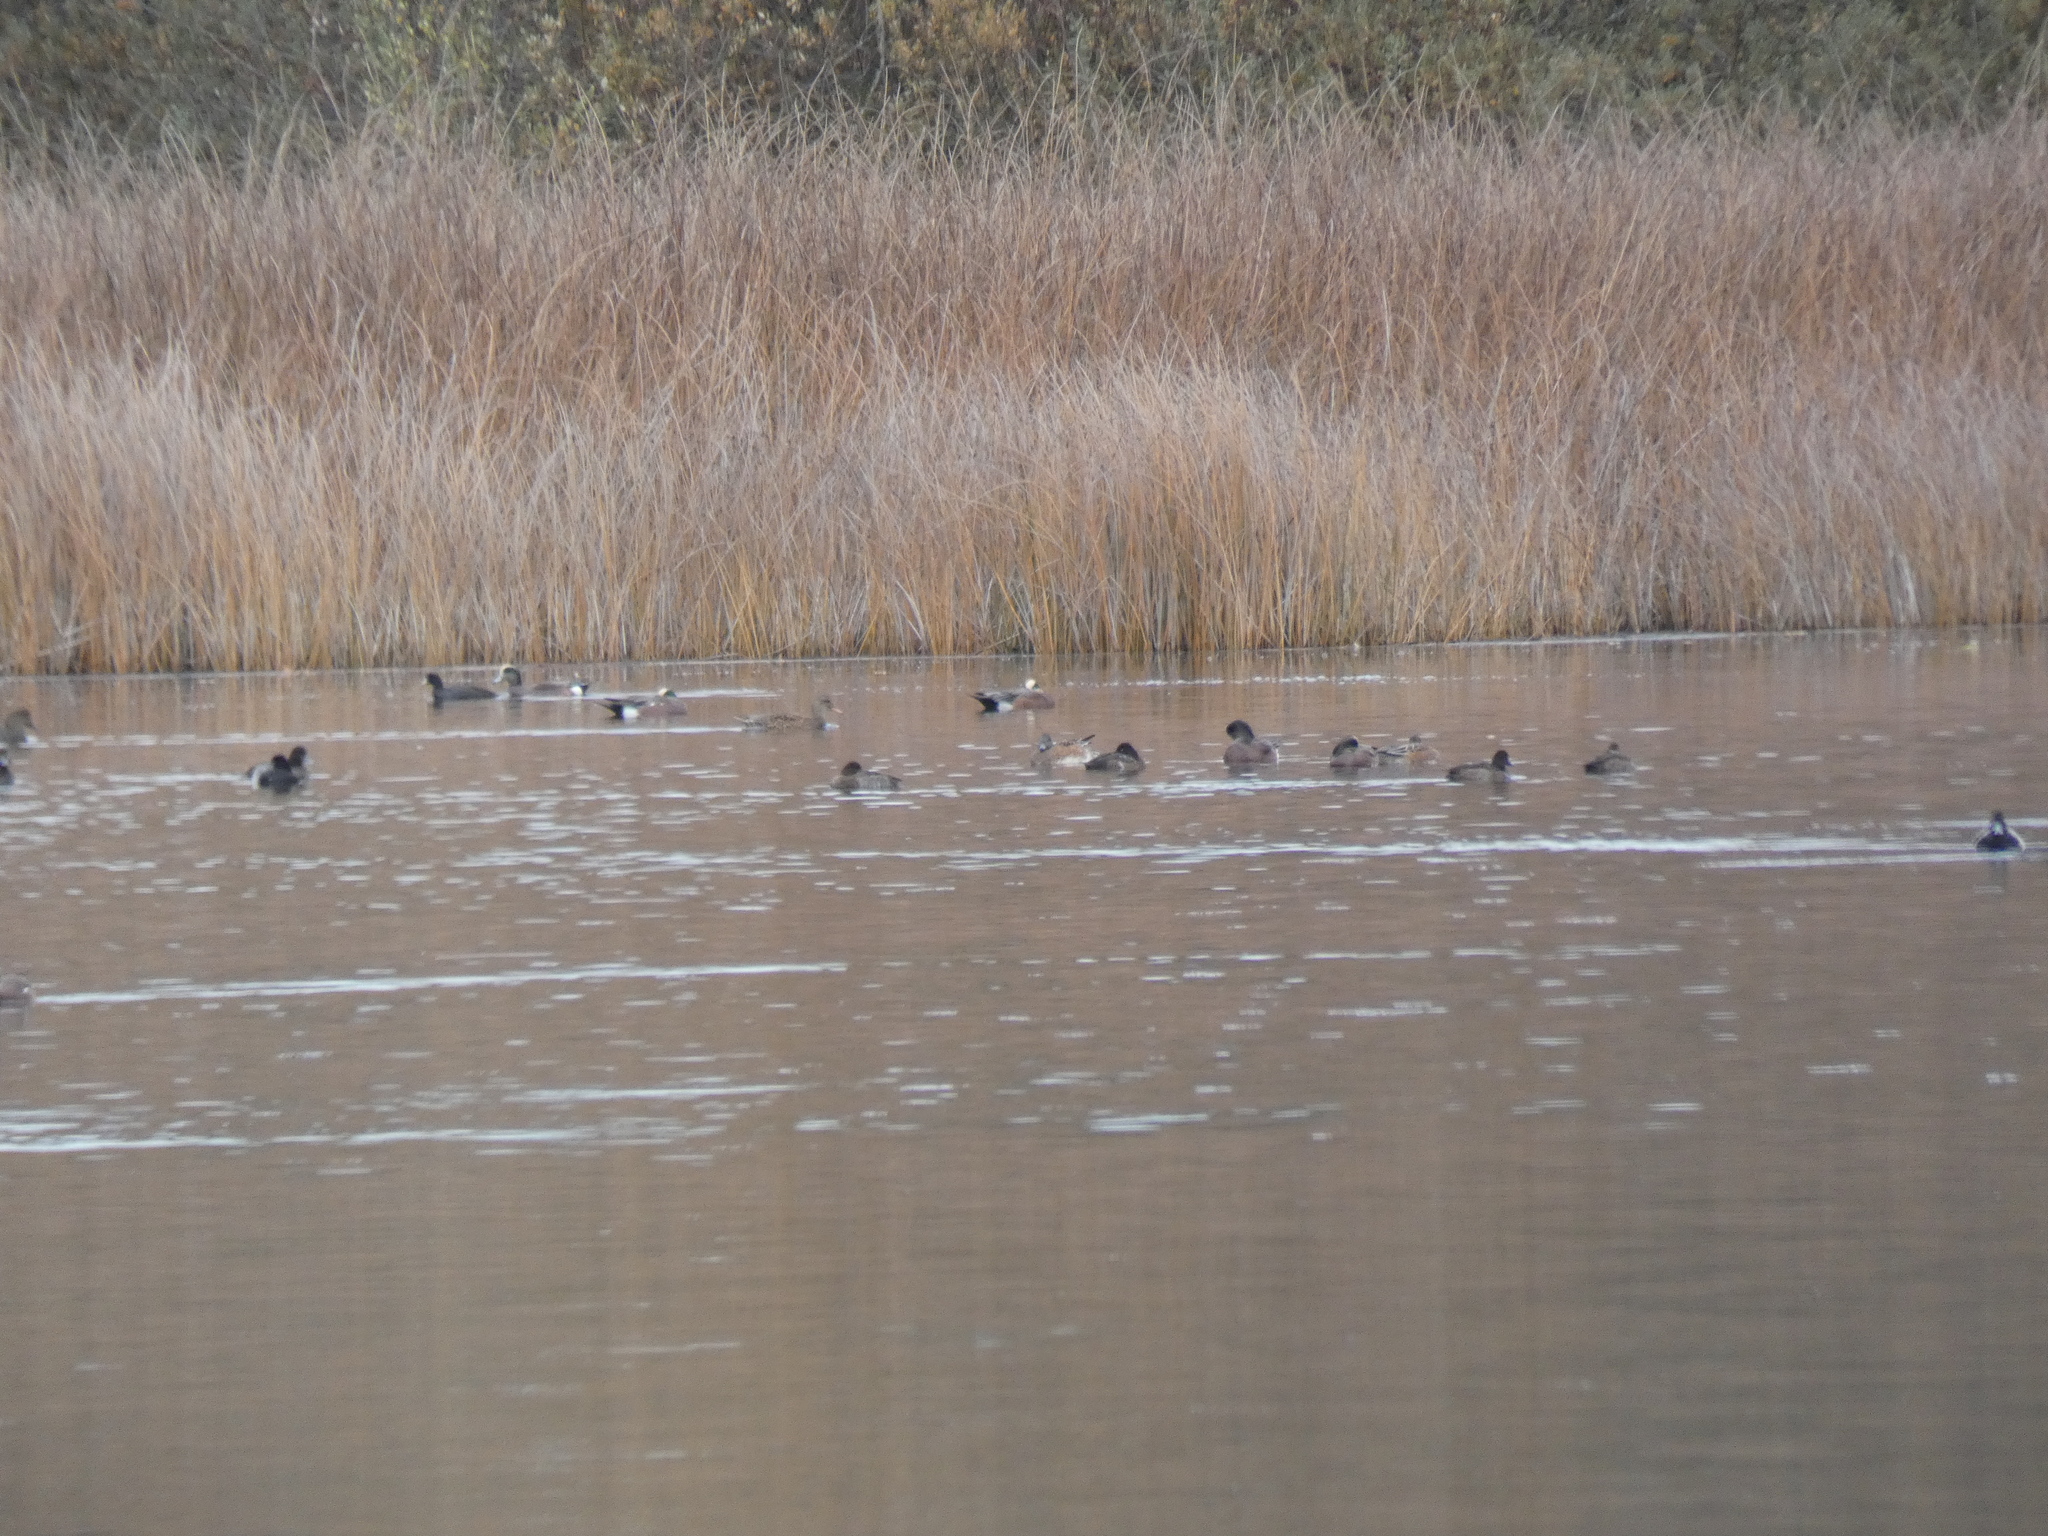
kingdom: Animalia
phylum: Chordata
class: Aves
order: Gruiformes
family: Rallidae
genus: Fulica
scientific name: Fulica americana
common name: American coot
